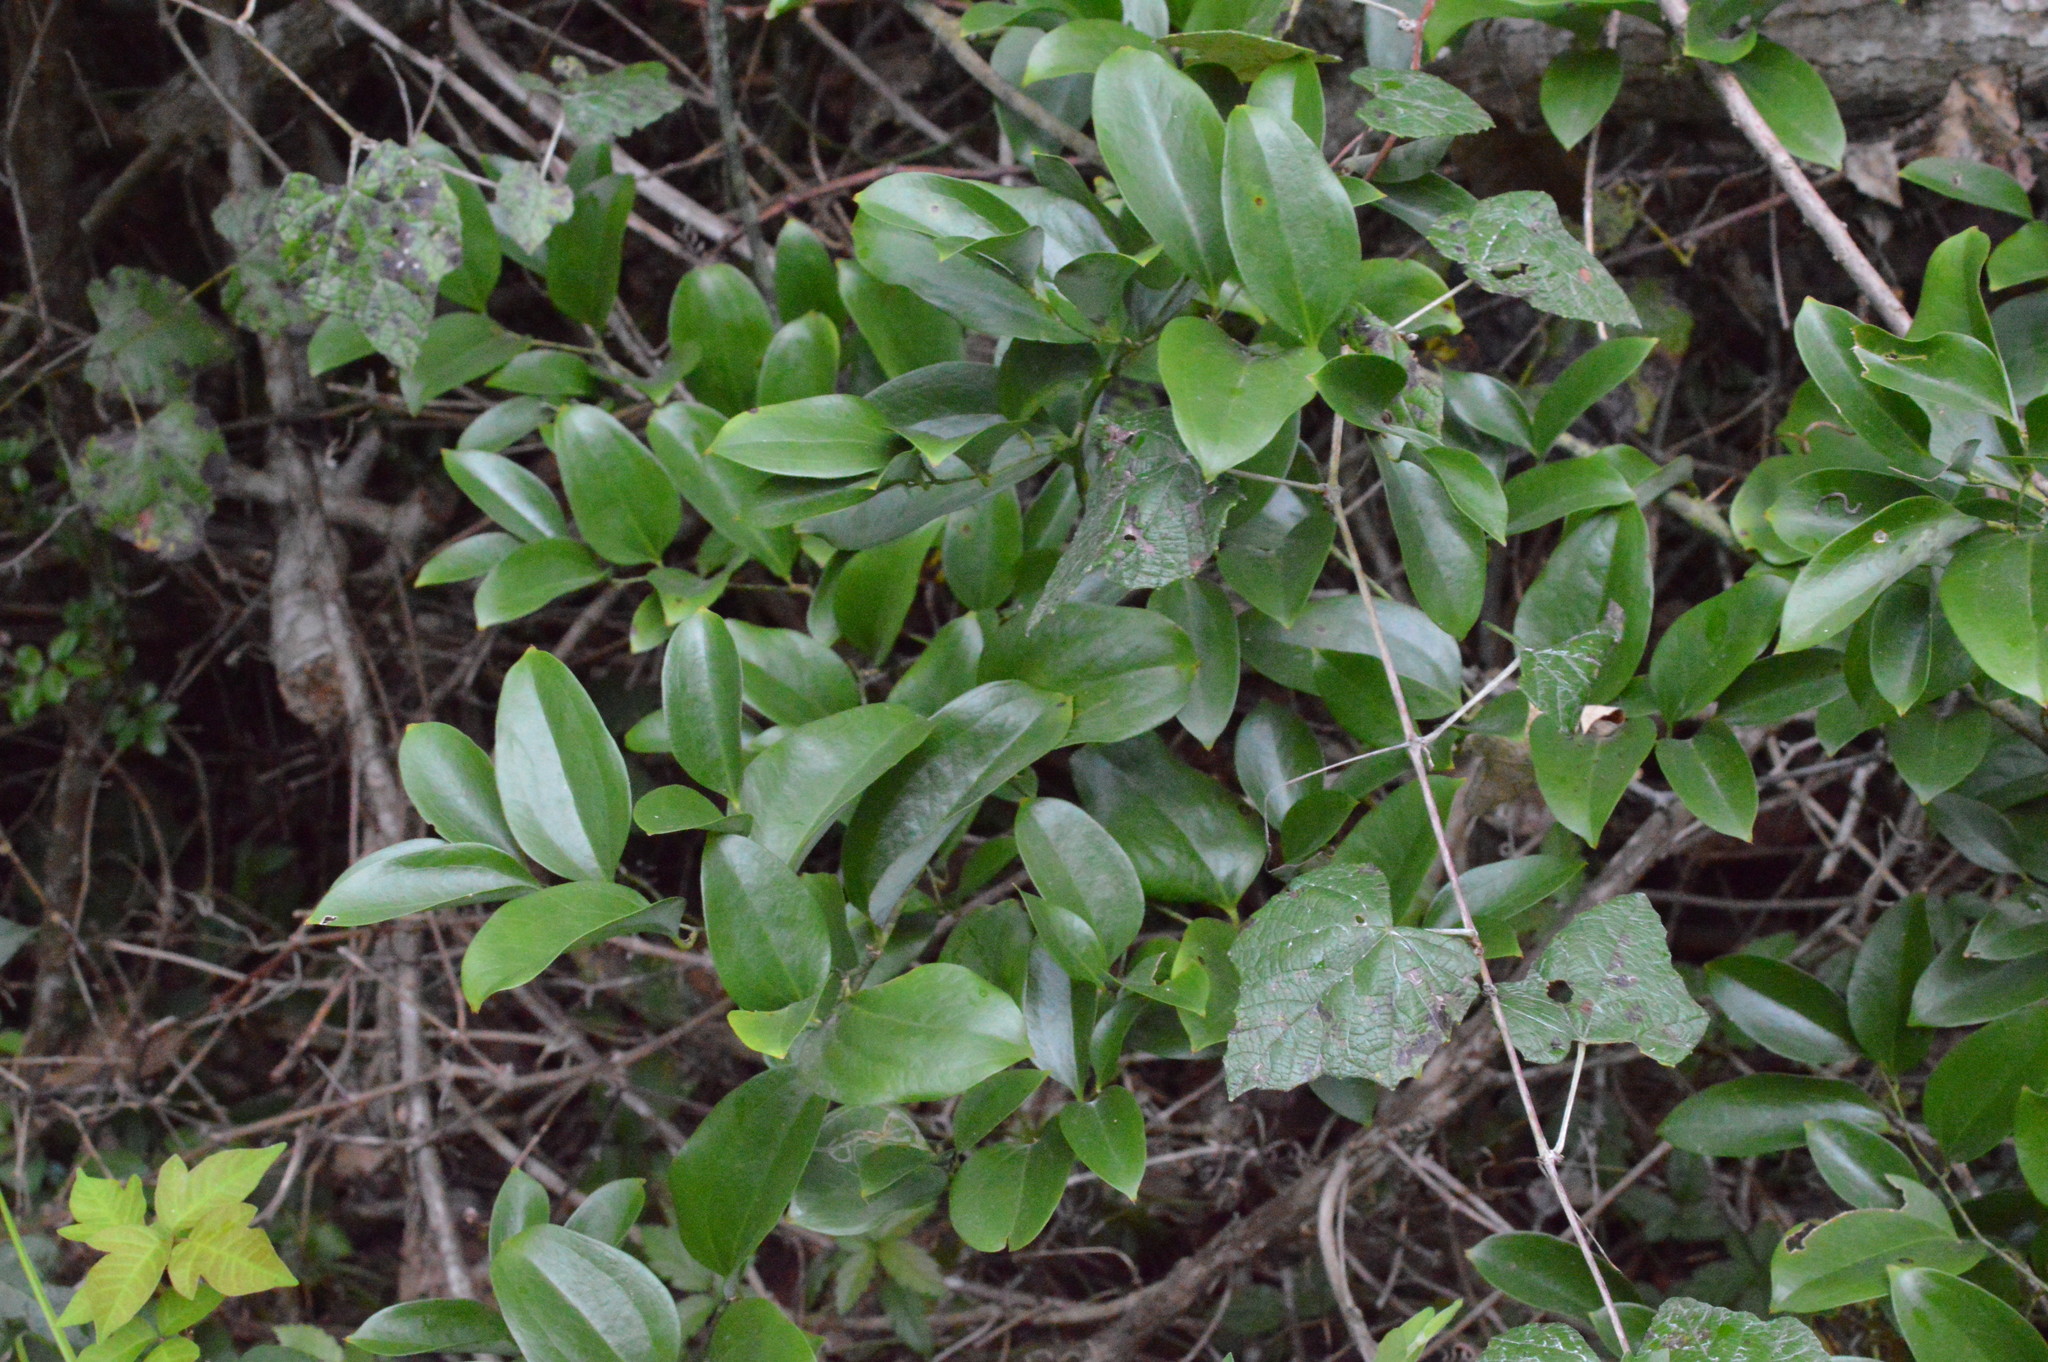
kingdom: Plantae
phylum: Tracheophyta
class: Liliopsida
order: Liliales
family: Smilacaceae
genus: Smilax
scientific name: Smilax maritima
